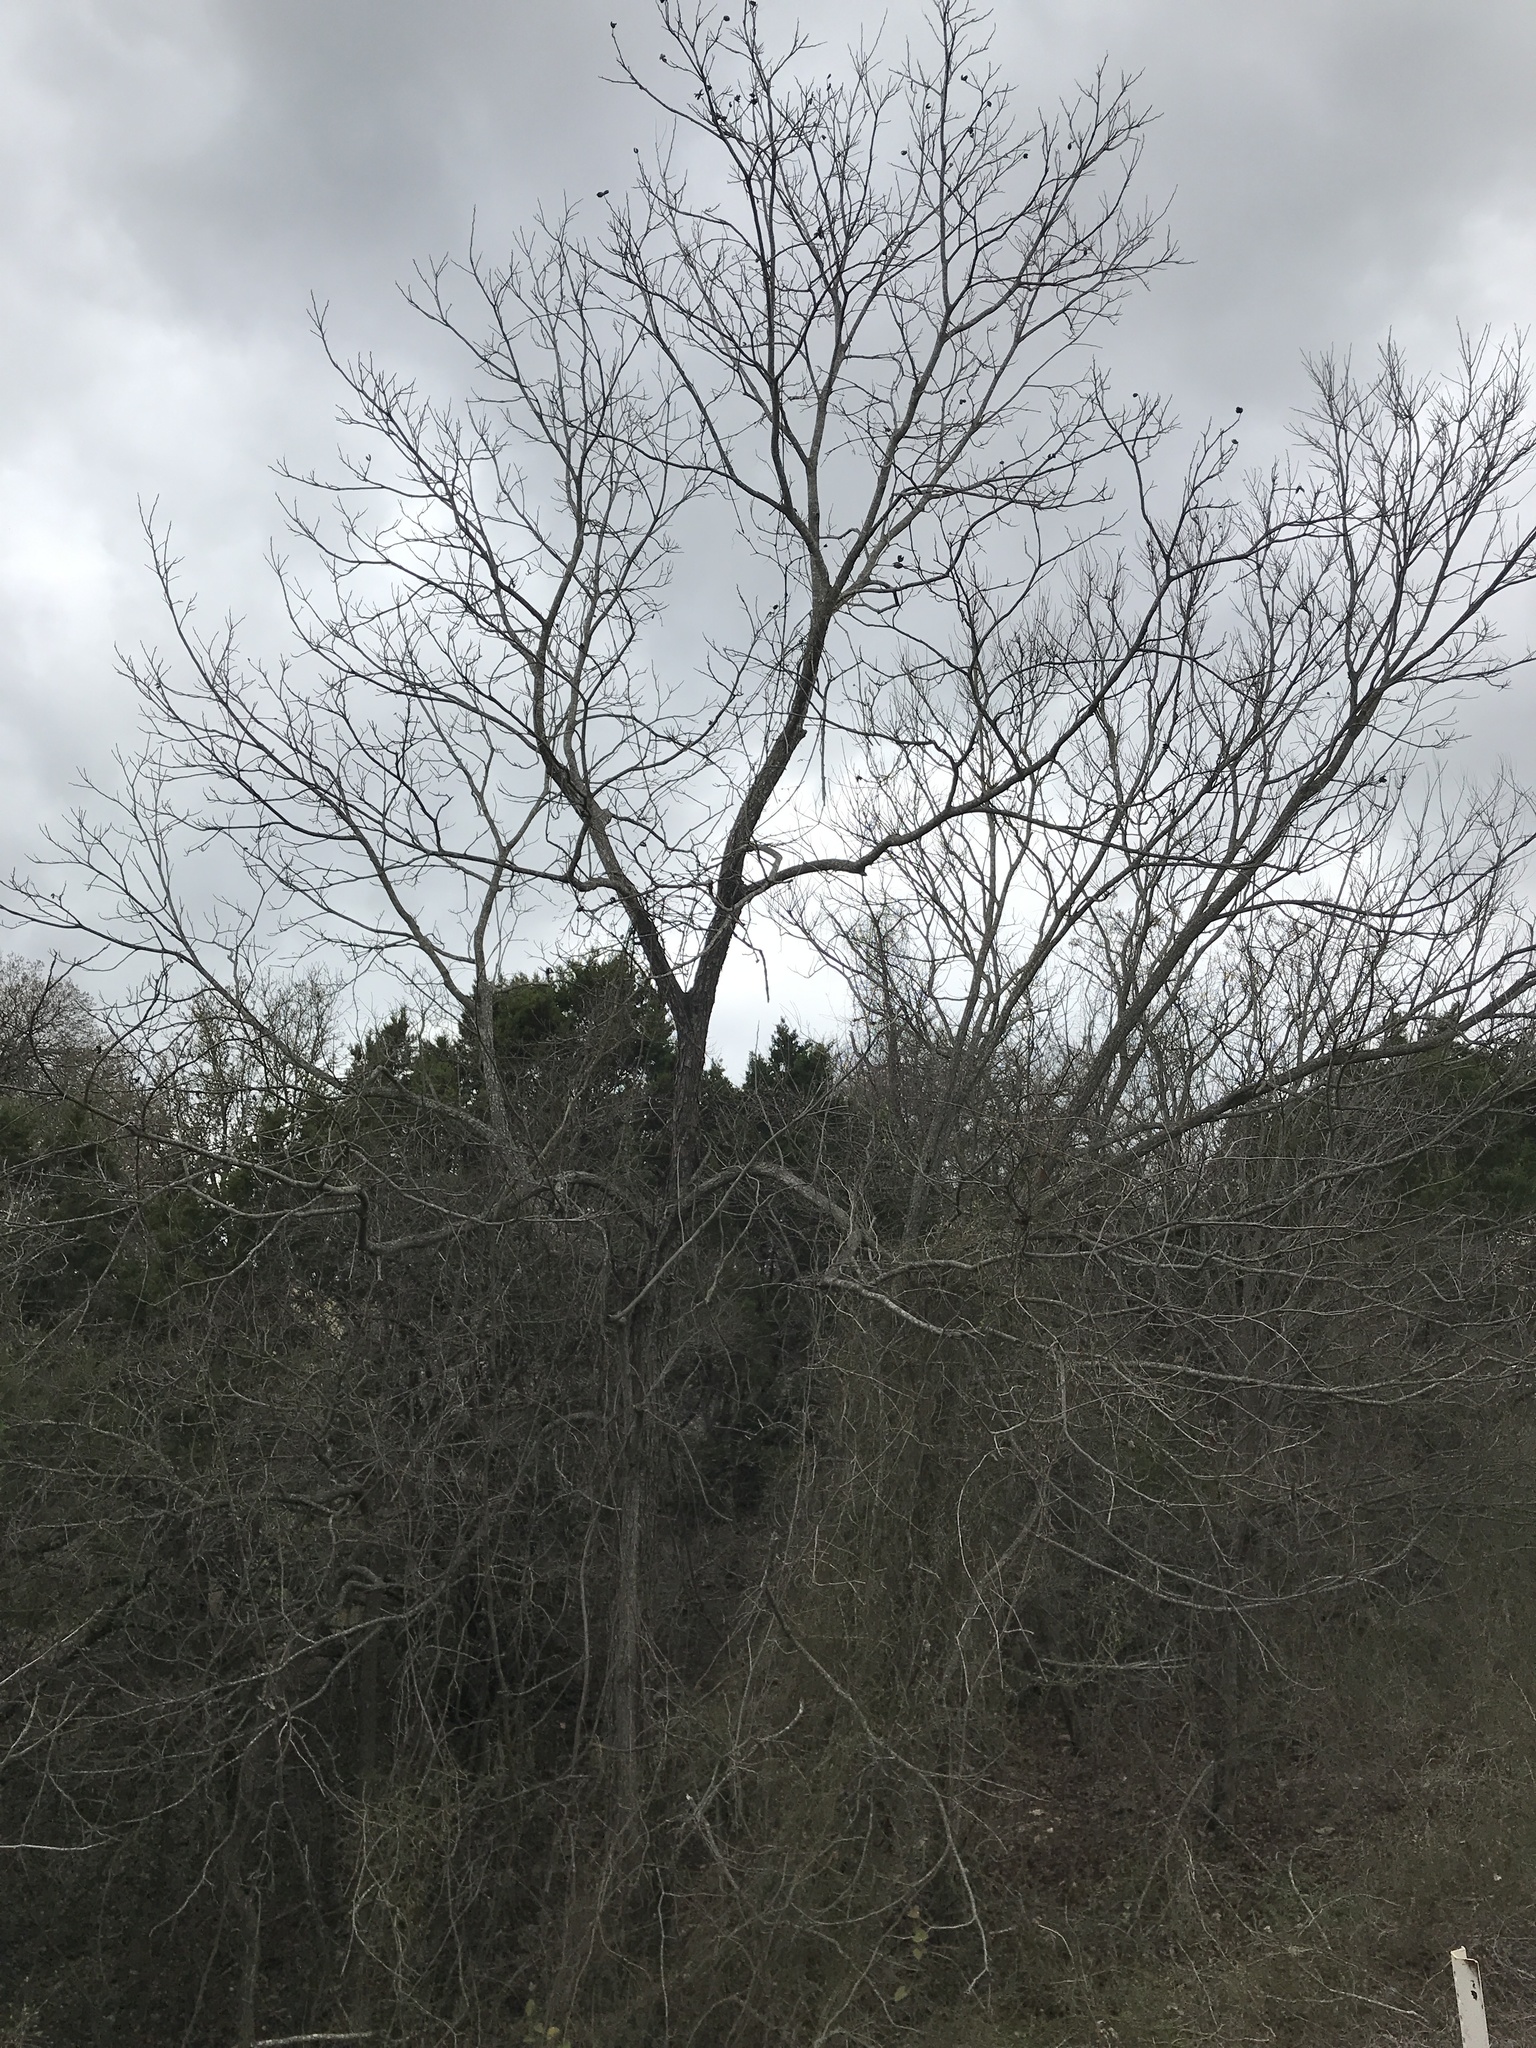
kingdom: Plantae
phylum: Tracheophyta
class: Magnoliopsida
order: Fagales
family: Juglandaceae
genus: Carya
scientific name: Carya illinoinensis
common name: Pecan
